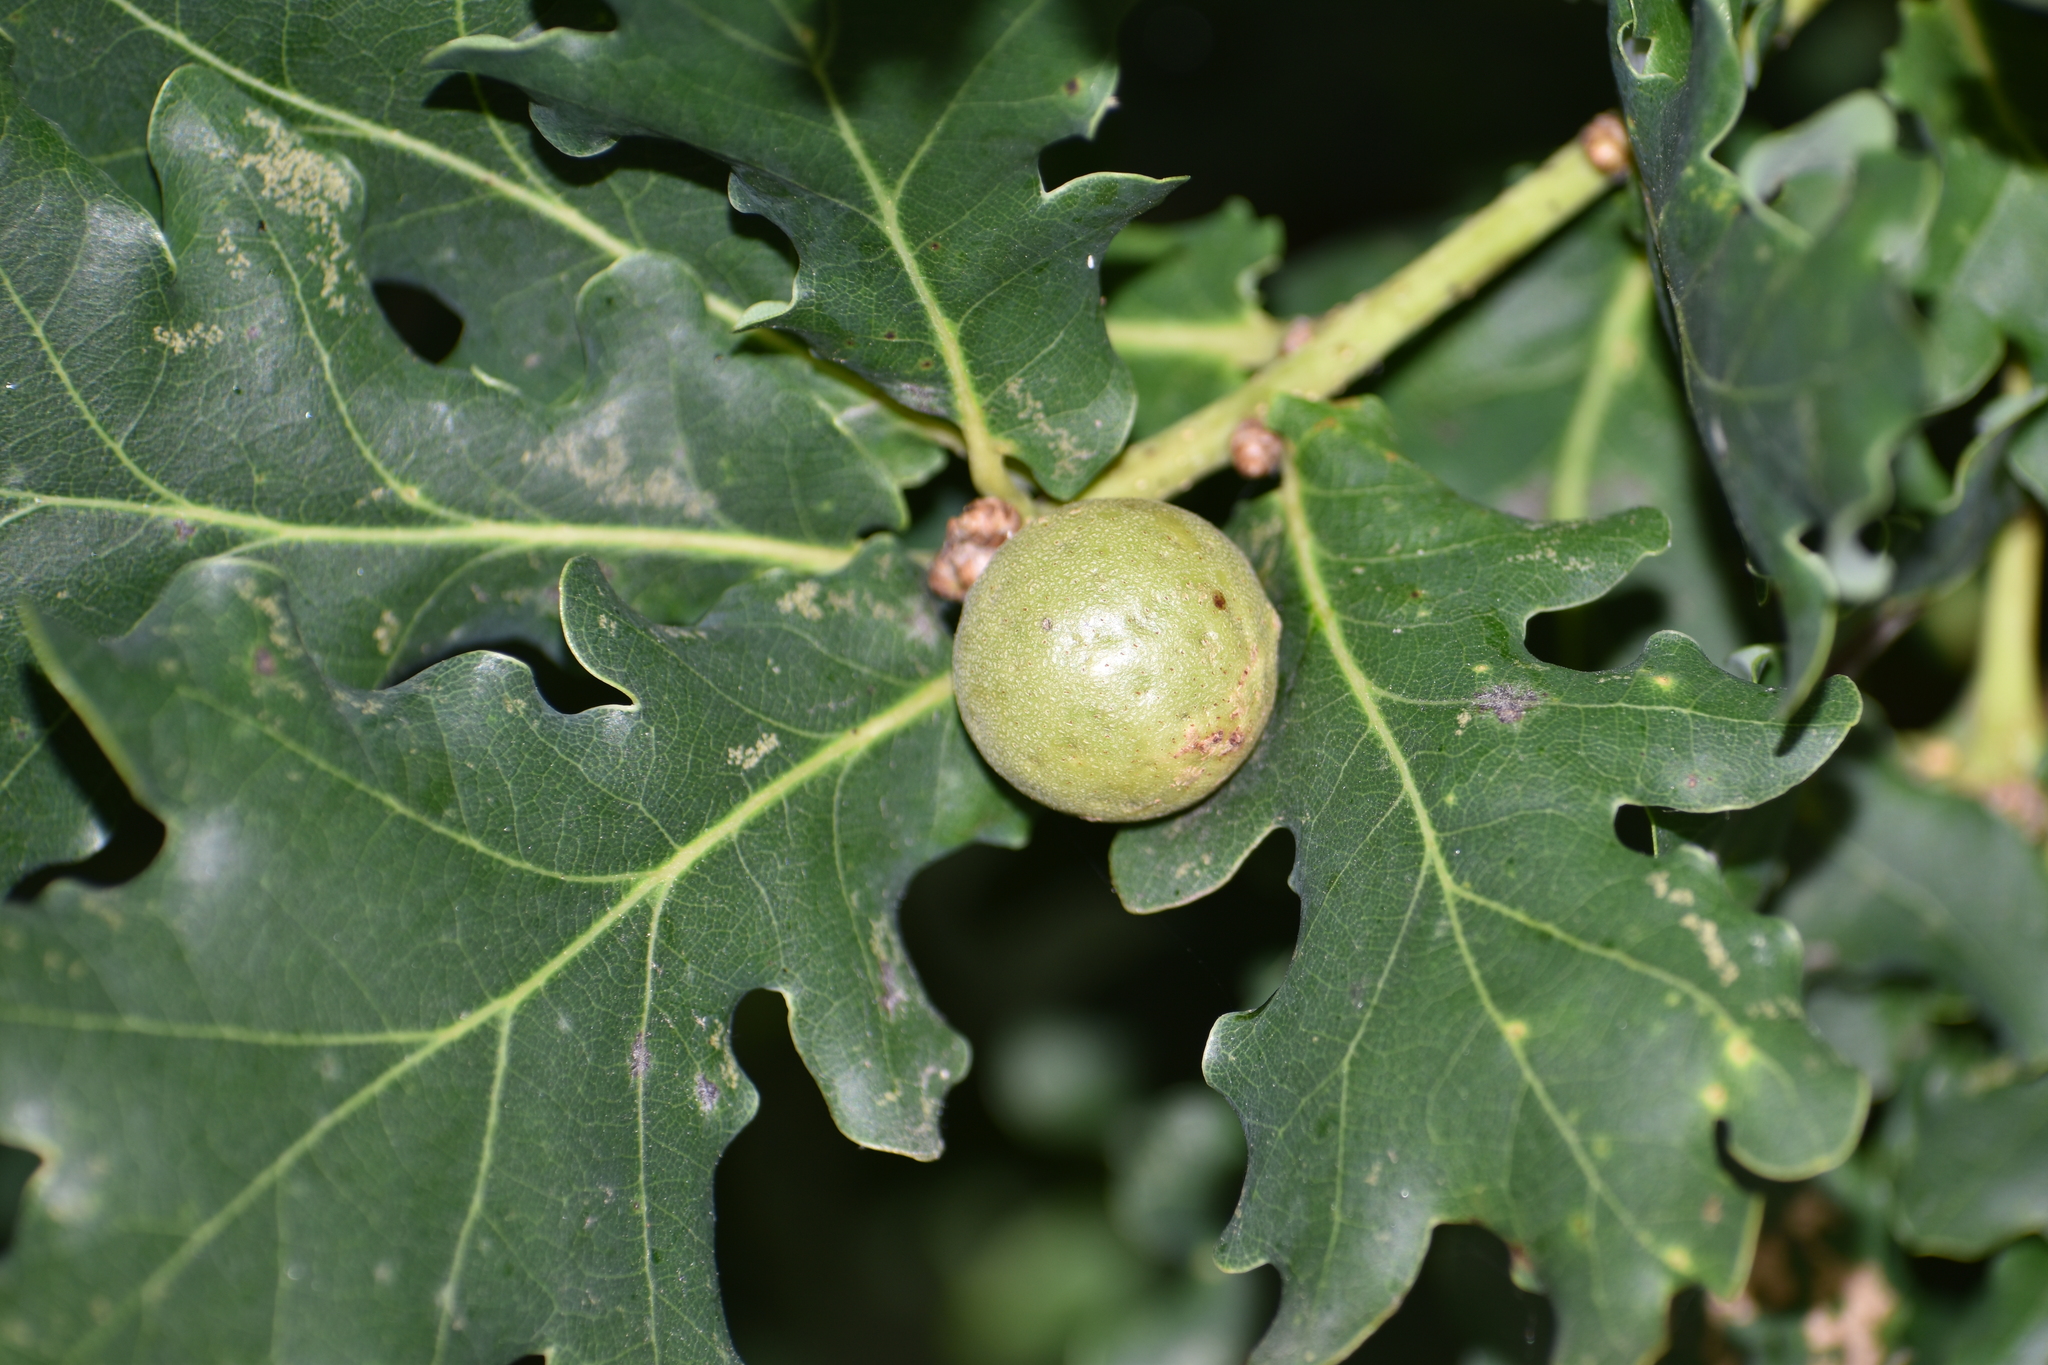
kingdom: Animalia
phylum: Arthropoda
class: Insecta
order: Hymenoptera
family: Cynipidae
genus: Andricus
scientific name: Andricus kollari
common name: Marble gall
